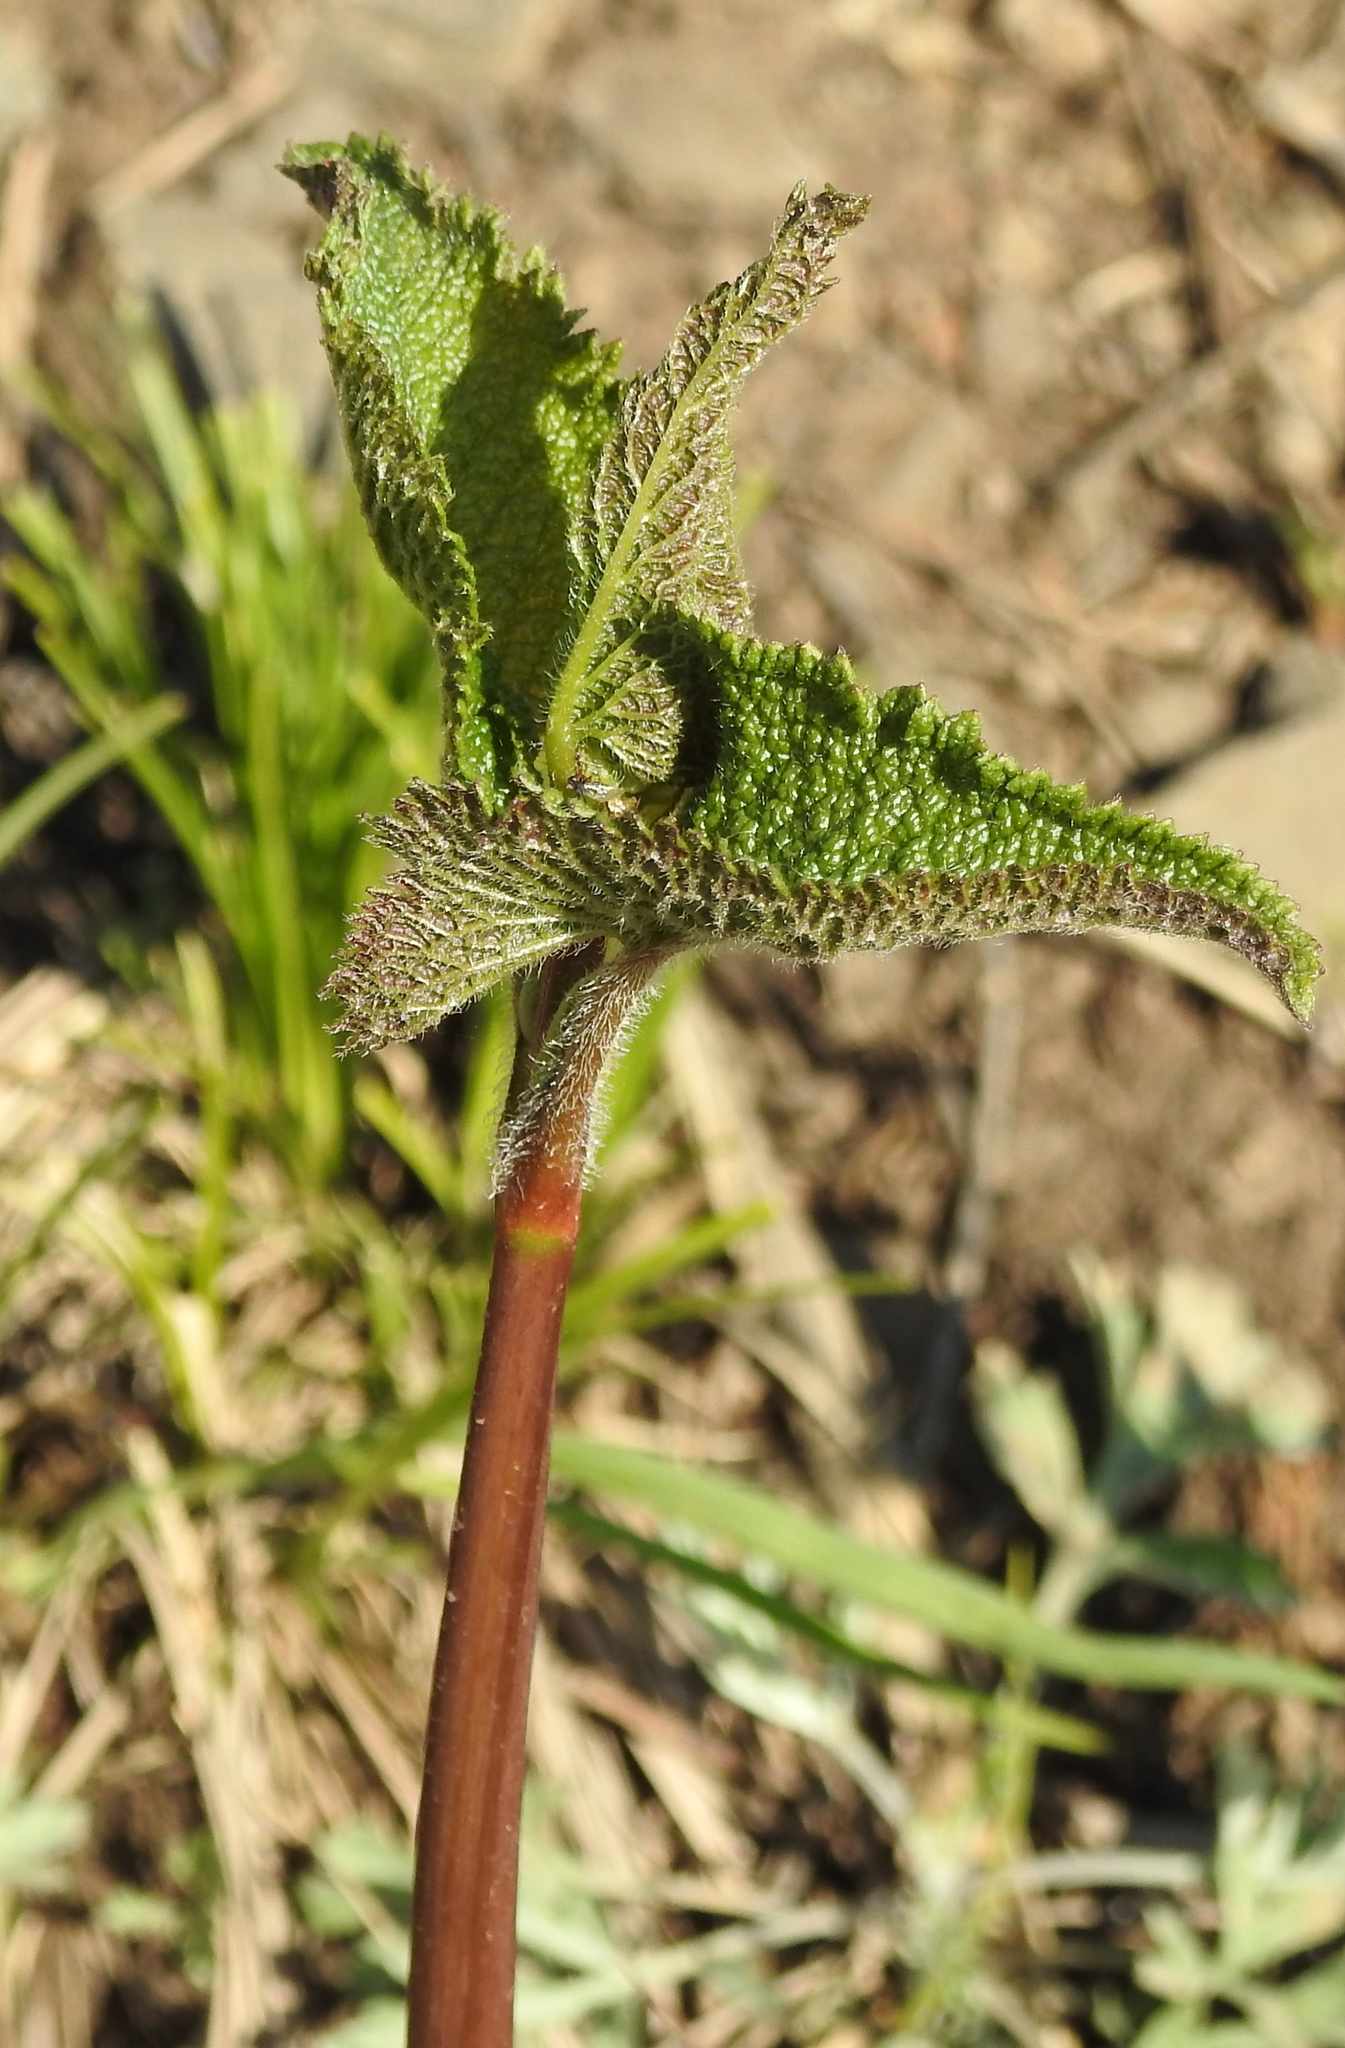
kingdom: Plantae
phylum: Tracheophyta
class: Magnoliopsida
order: Lamiales
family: Lamiaceae
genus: Phlomoides
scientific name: Phlomoides tuberosa
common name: Tuberous jerusalem sage
